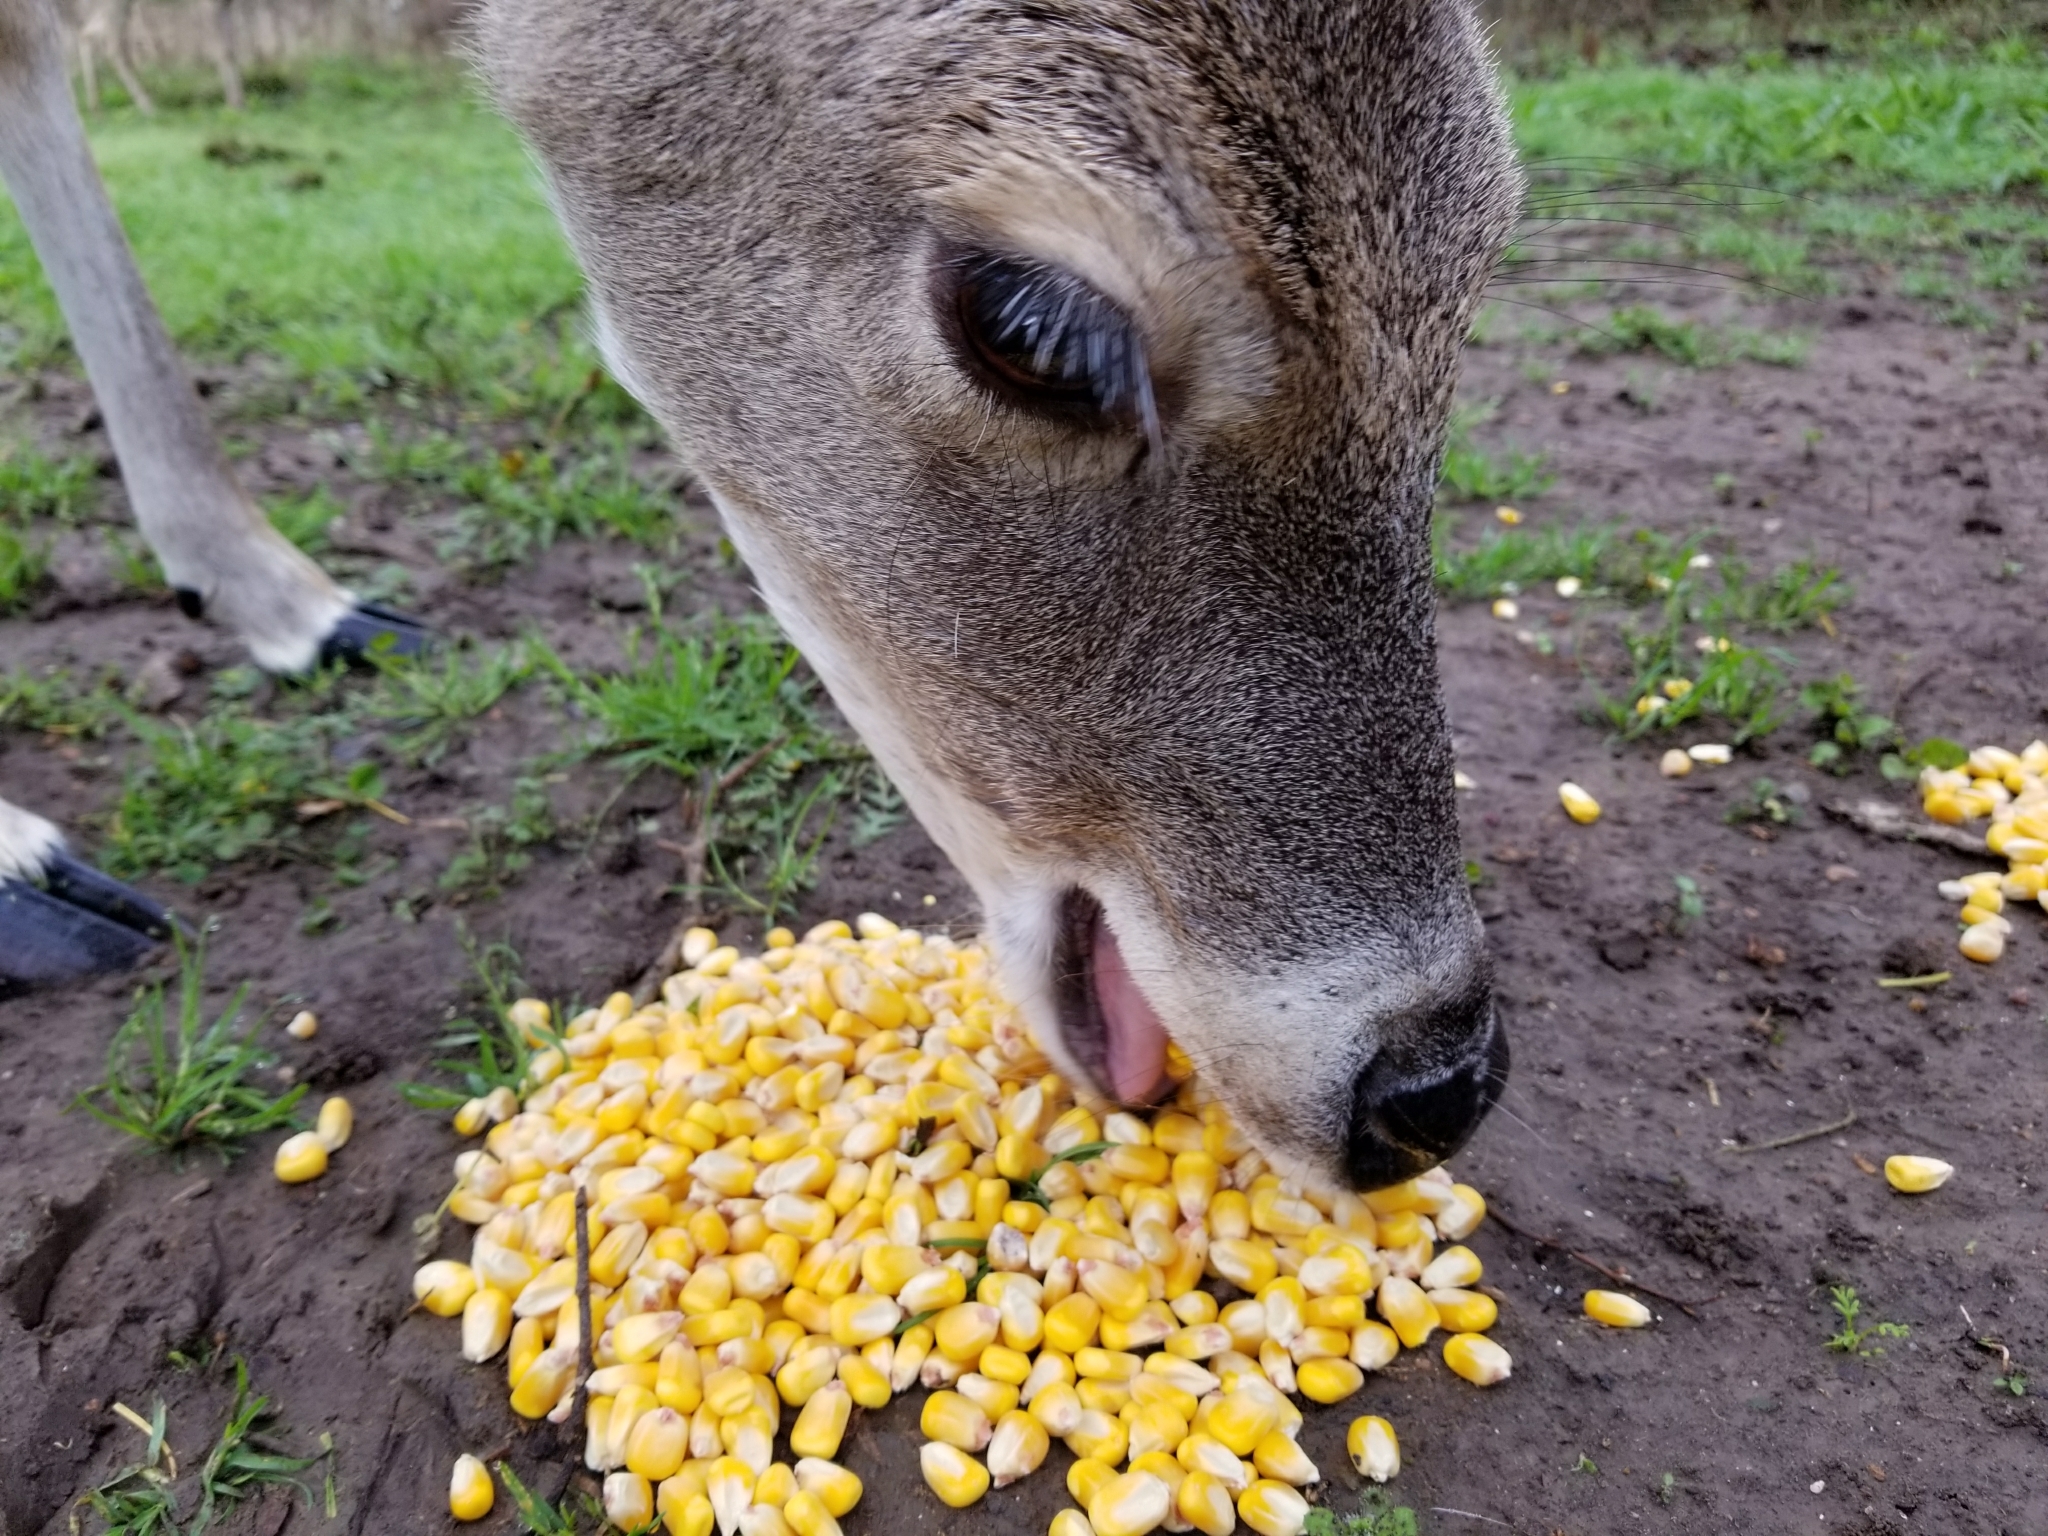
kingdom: Animalia
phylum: Chordata
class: Mammalia
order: Artiodactyla
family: Cervidae
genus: Odocoileus
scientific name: Odocoileus virginianus
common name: White-tailed deer
